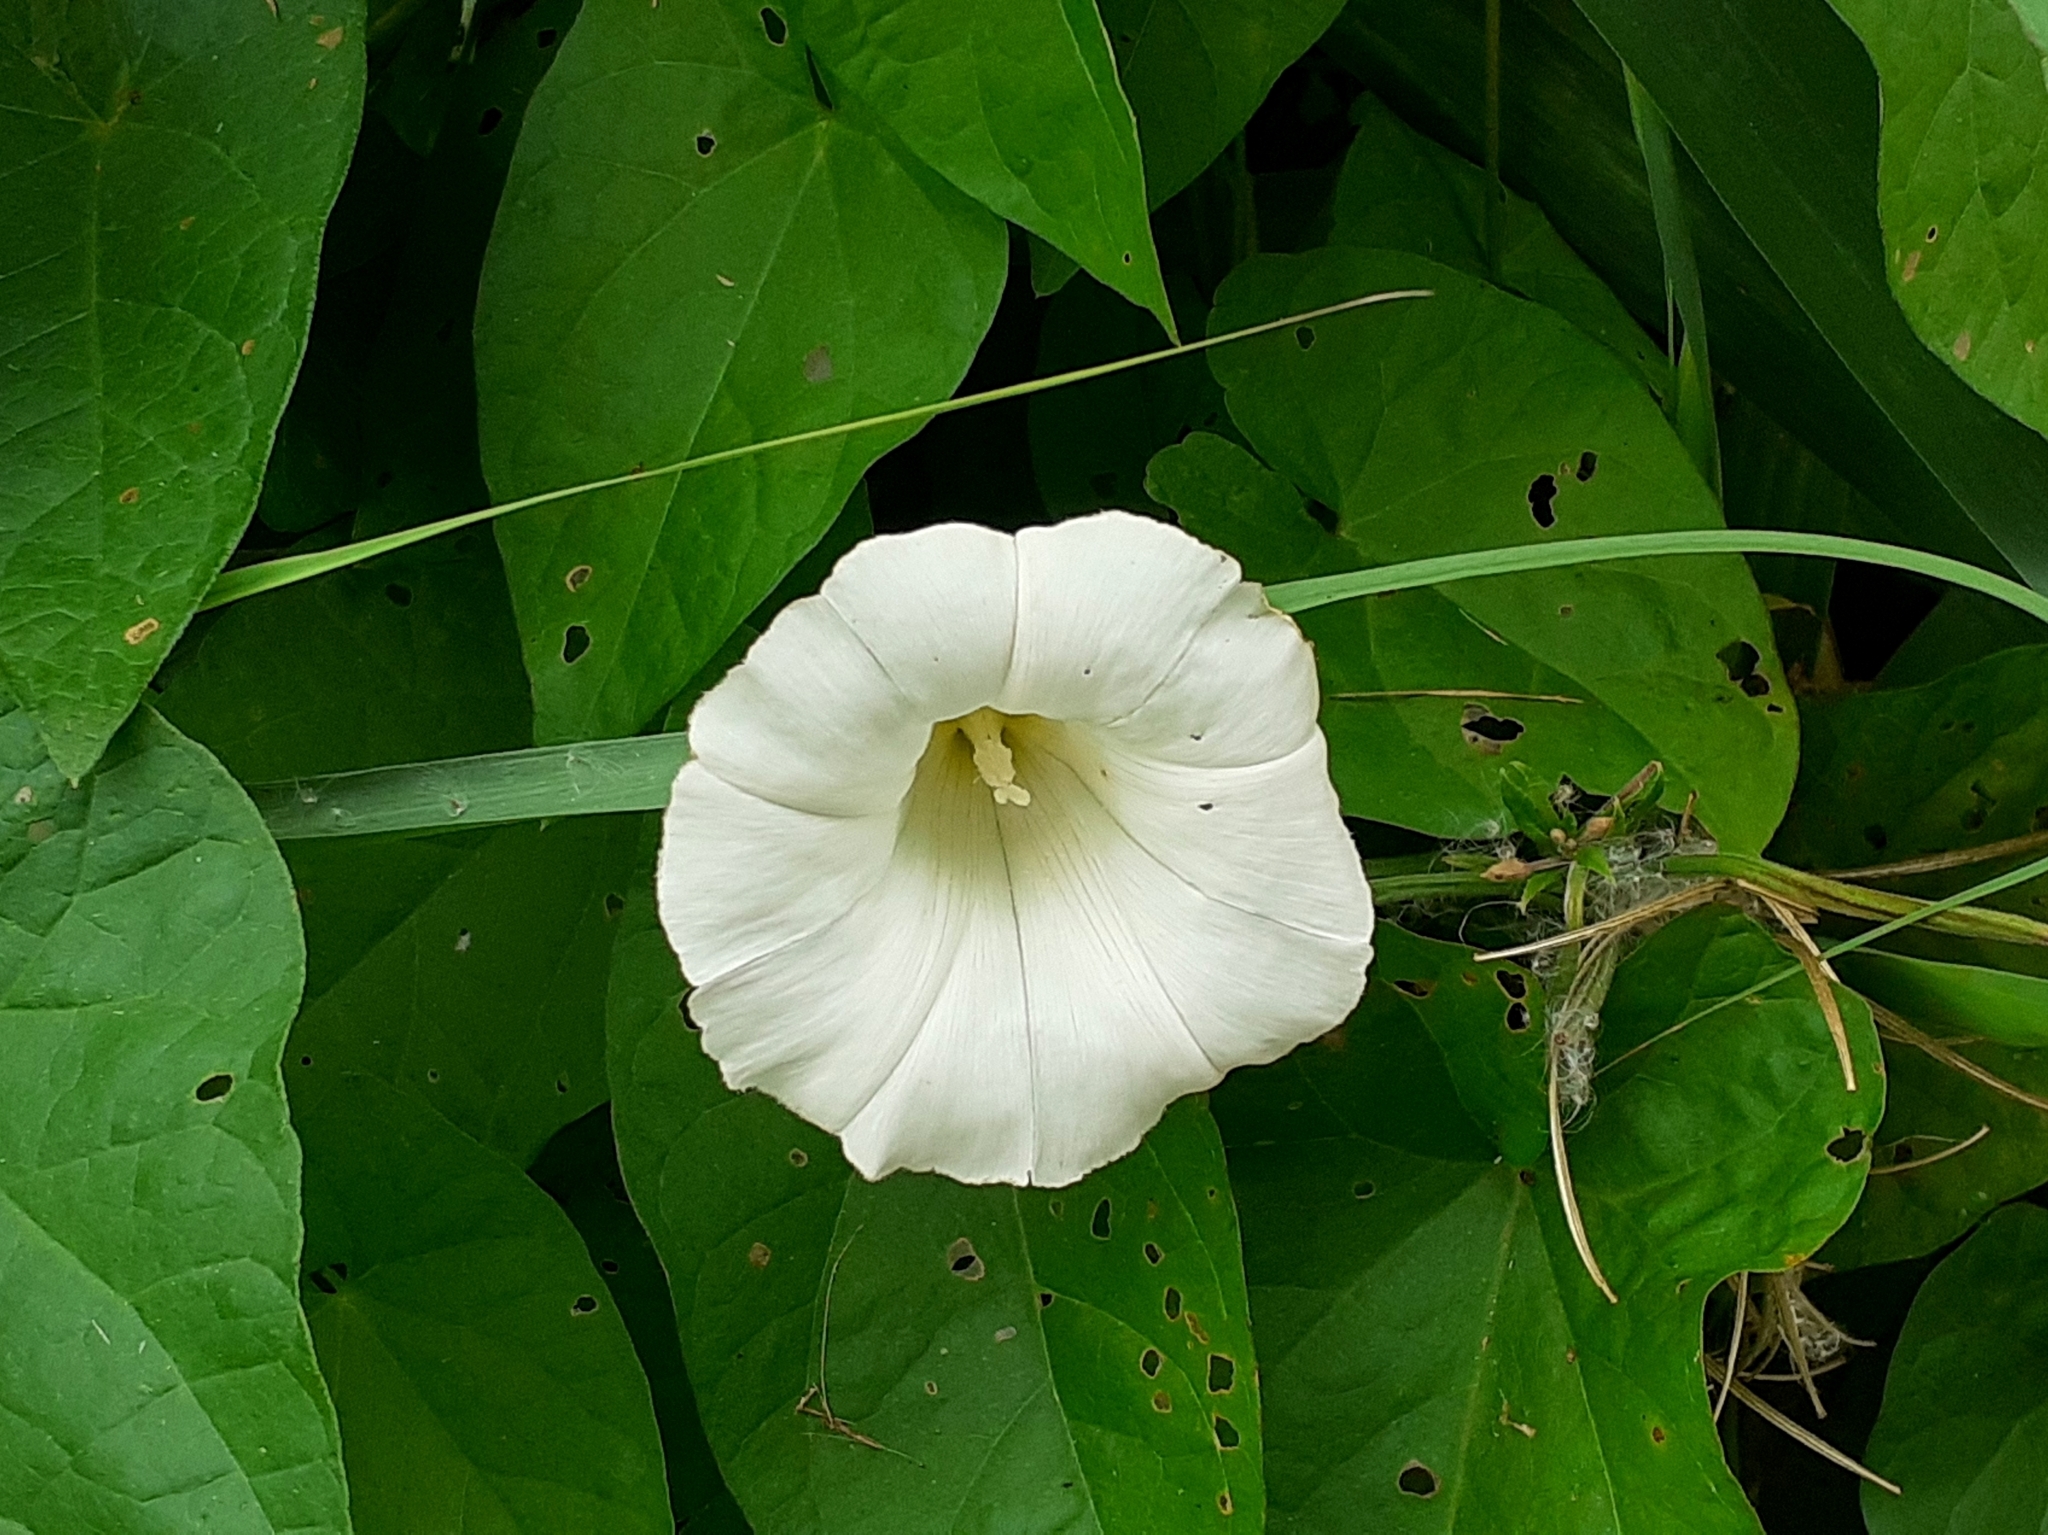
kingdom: Plantae
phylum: Tracheophyta
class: Magnoliopsida
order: Solanales
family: Convolvulaceae
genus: Calystegia
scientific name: Calystegia
